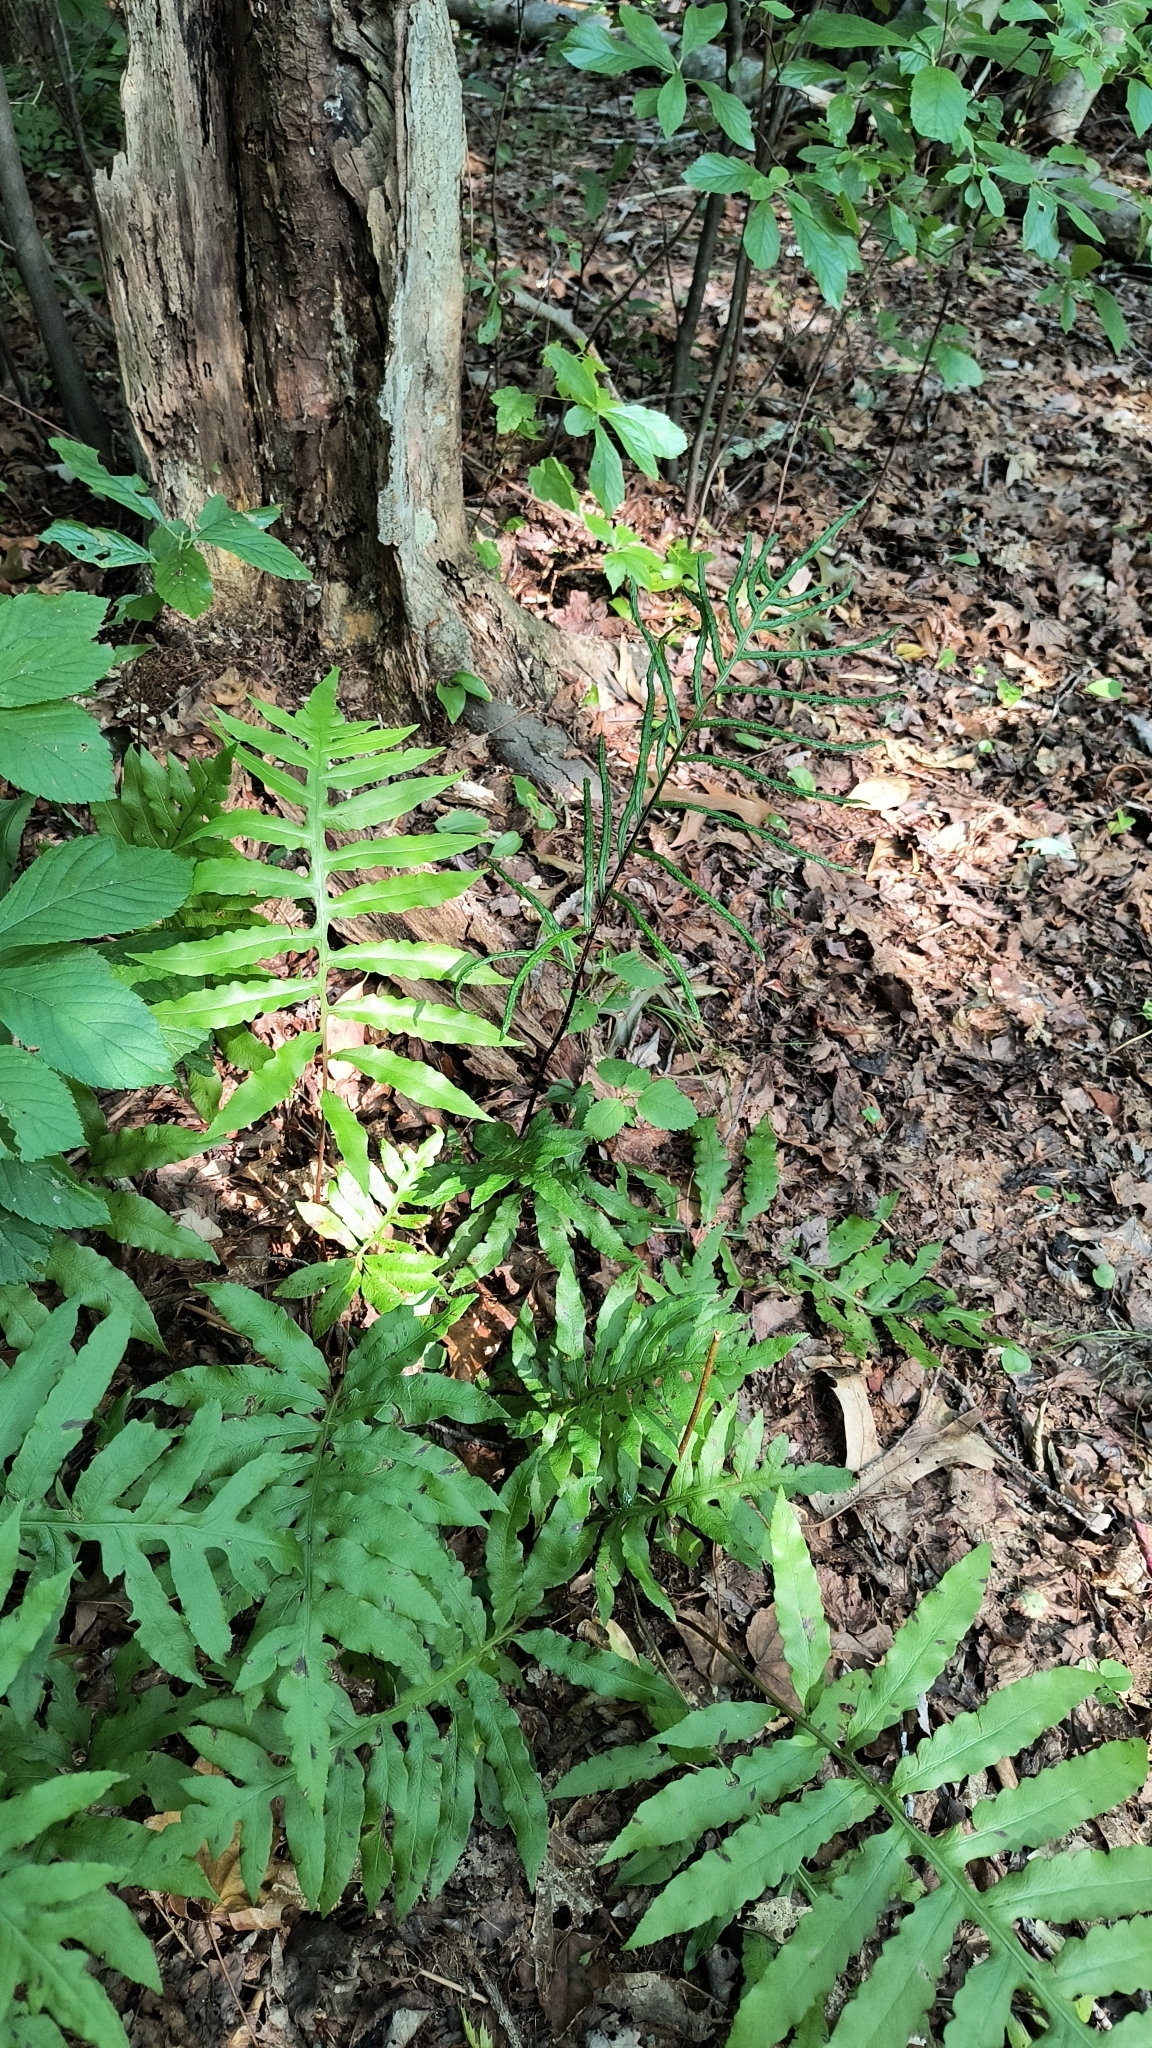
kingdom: Plantae
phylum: Tracheophyta
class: Polypodiopsida
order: Polypodiales
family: Blechnaceae
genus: Lorinseria
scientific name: Lorinseria areolata
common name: Dwarf chain fern
